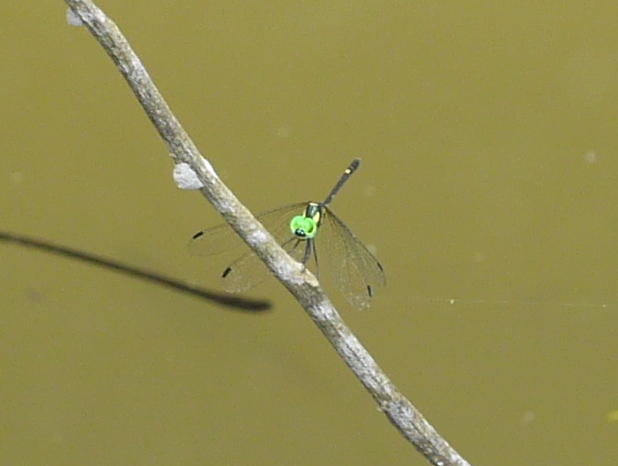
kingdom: Animalia
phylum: Arthropoda
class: Insecta
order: Odonata
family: Libellulidae
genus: Tetrathemis
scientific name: Tetrathemis hyalina
